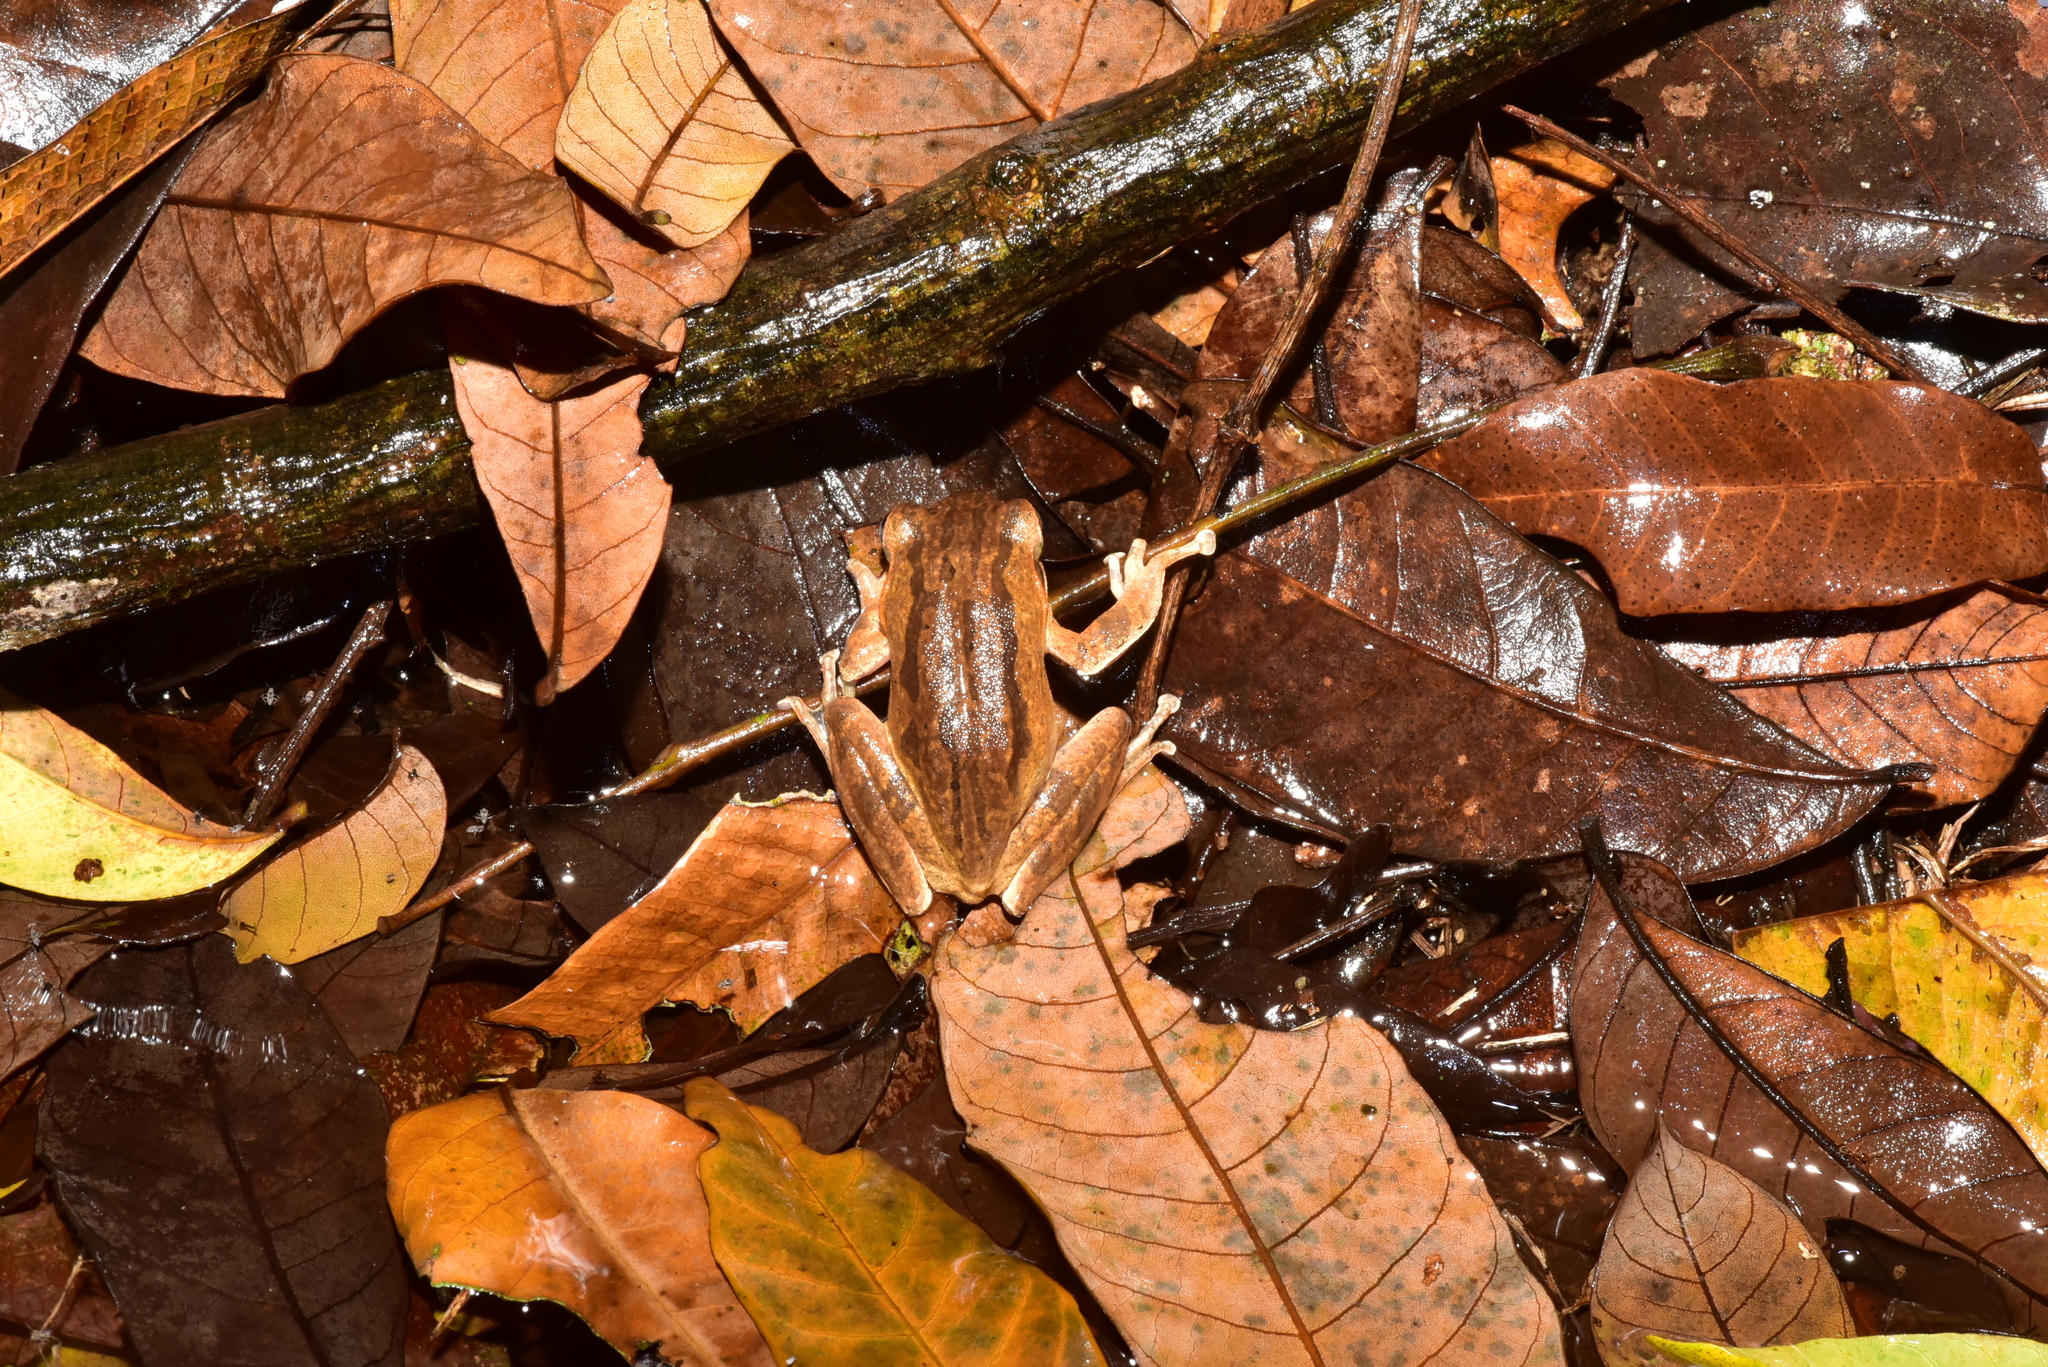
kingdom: Animalia
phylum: Chordata
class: Amphibia
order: Anura
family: Rhacophoridae
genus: Polypedates
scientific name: Polypedates braueri
